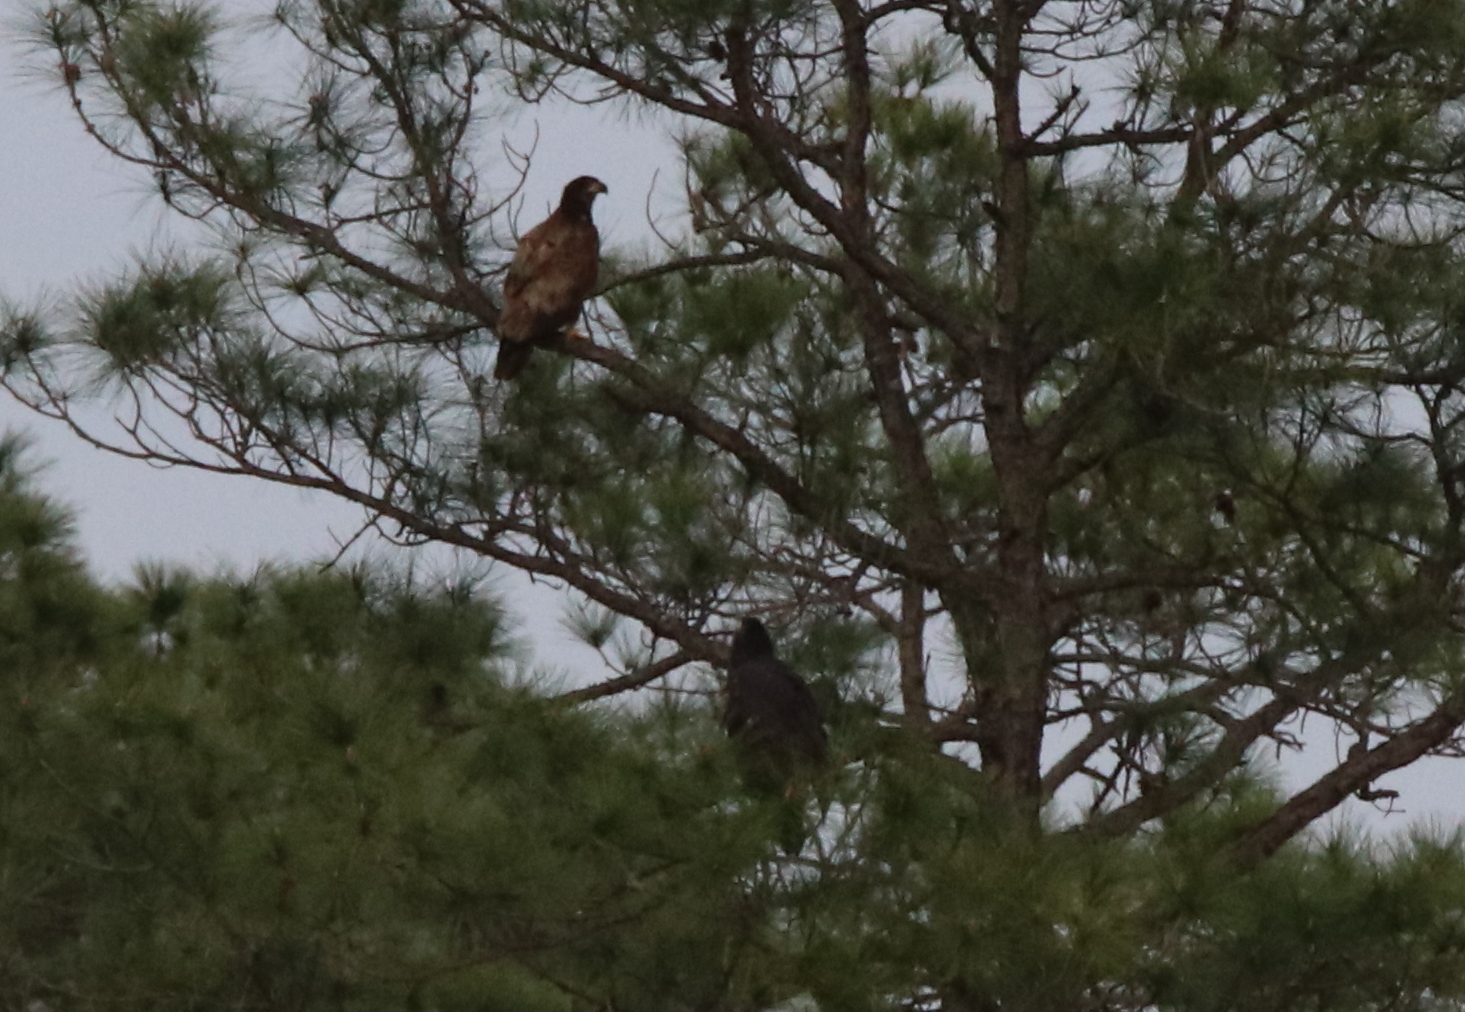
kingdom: Animalia
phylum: Chordata
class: Aves
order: Accipitriformes
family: Accipitridae
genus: Haliaeetus
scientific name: Haliaeetus leucocephalus
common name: Bald eagle
